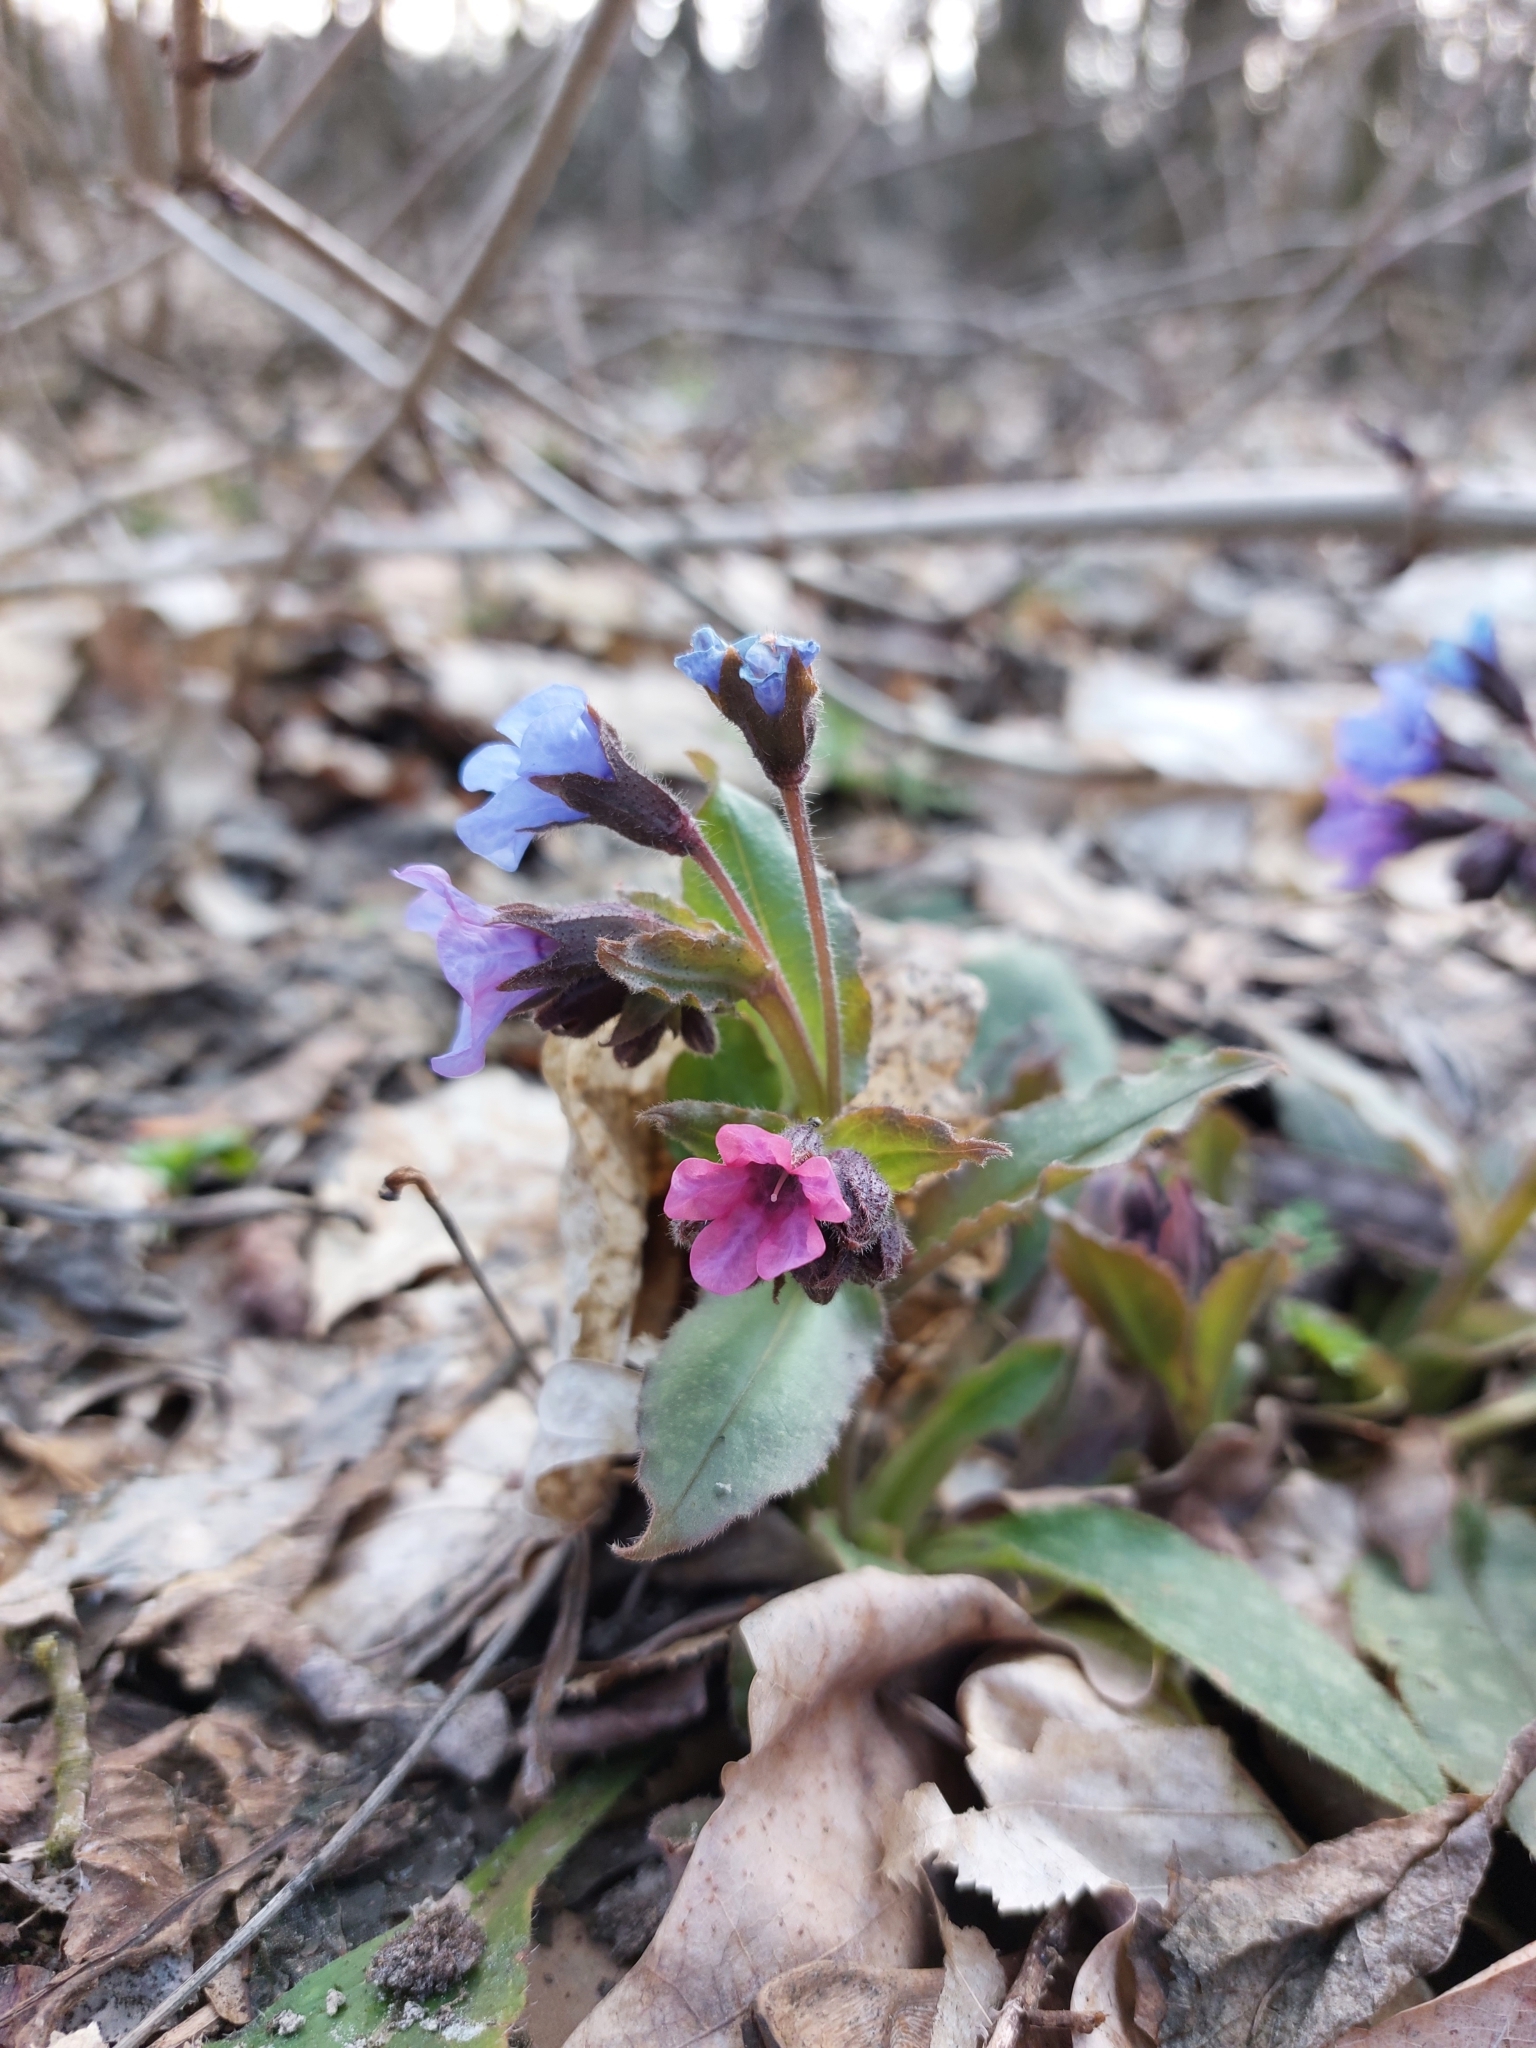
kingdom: Plantae
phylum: Tracheophyta
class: Magnoliopsida
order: Boraginales
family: Boraginaceae
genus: Pulmonaria
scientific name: Pulmonaria obscura
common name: Suffolk lungwort
